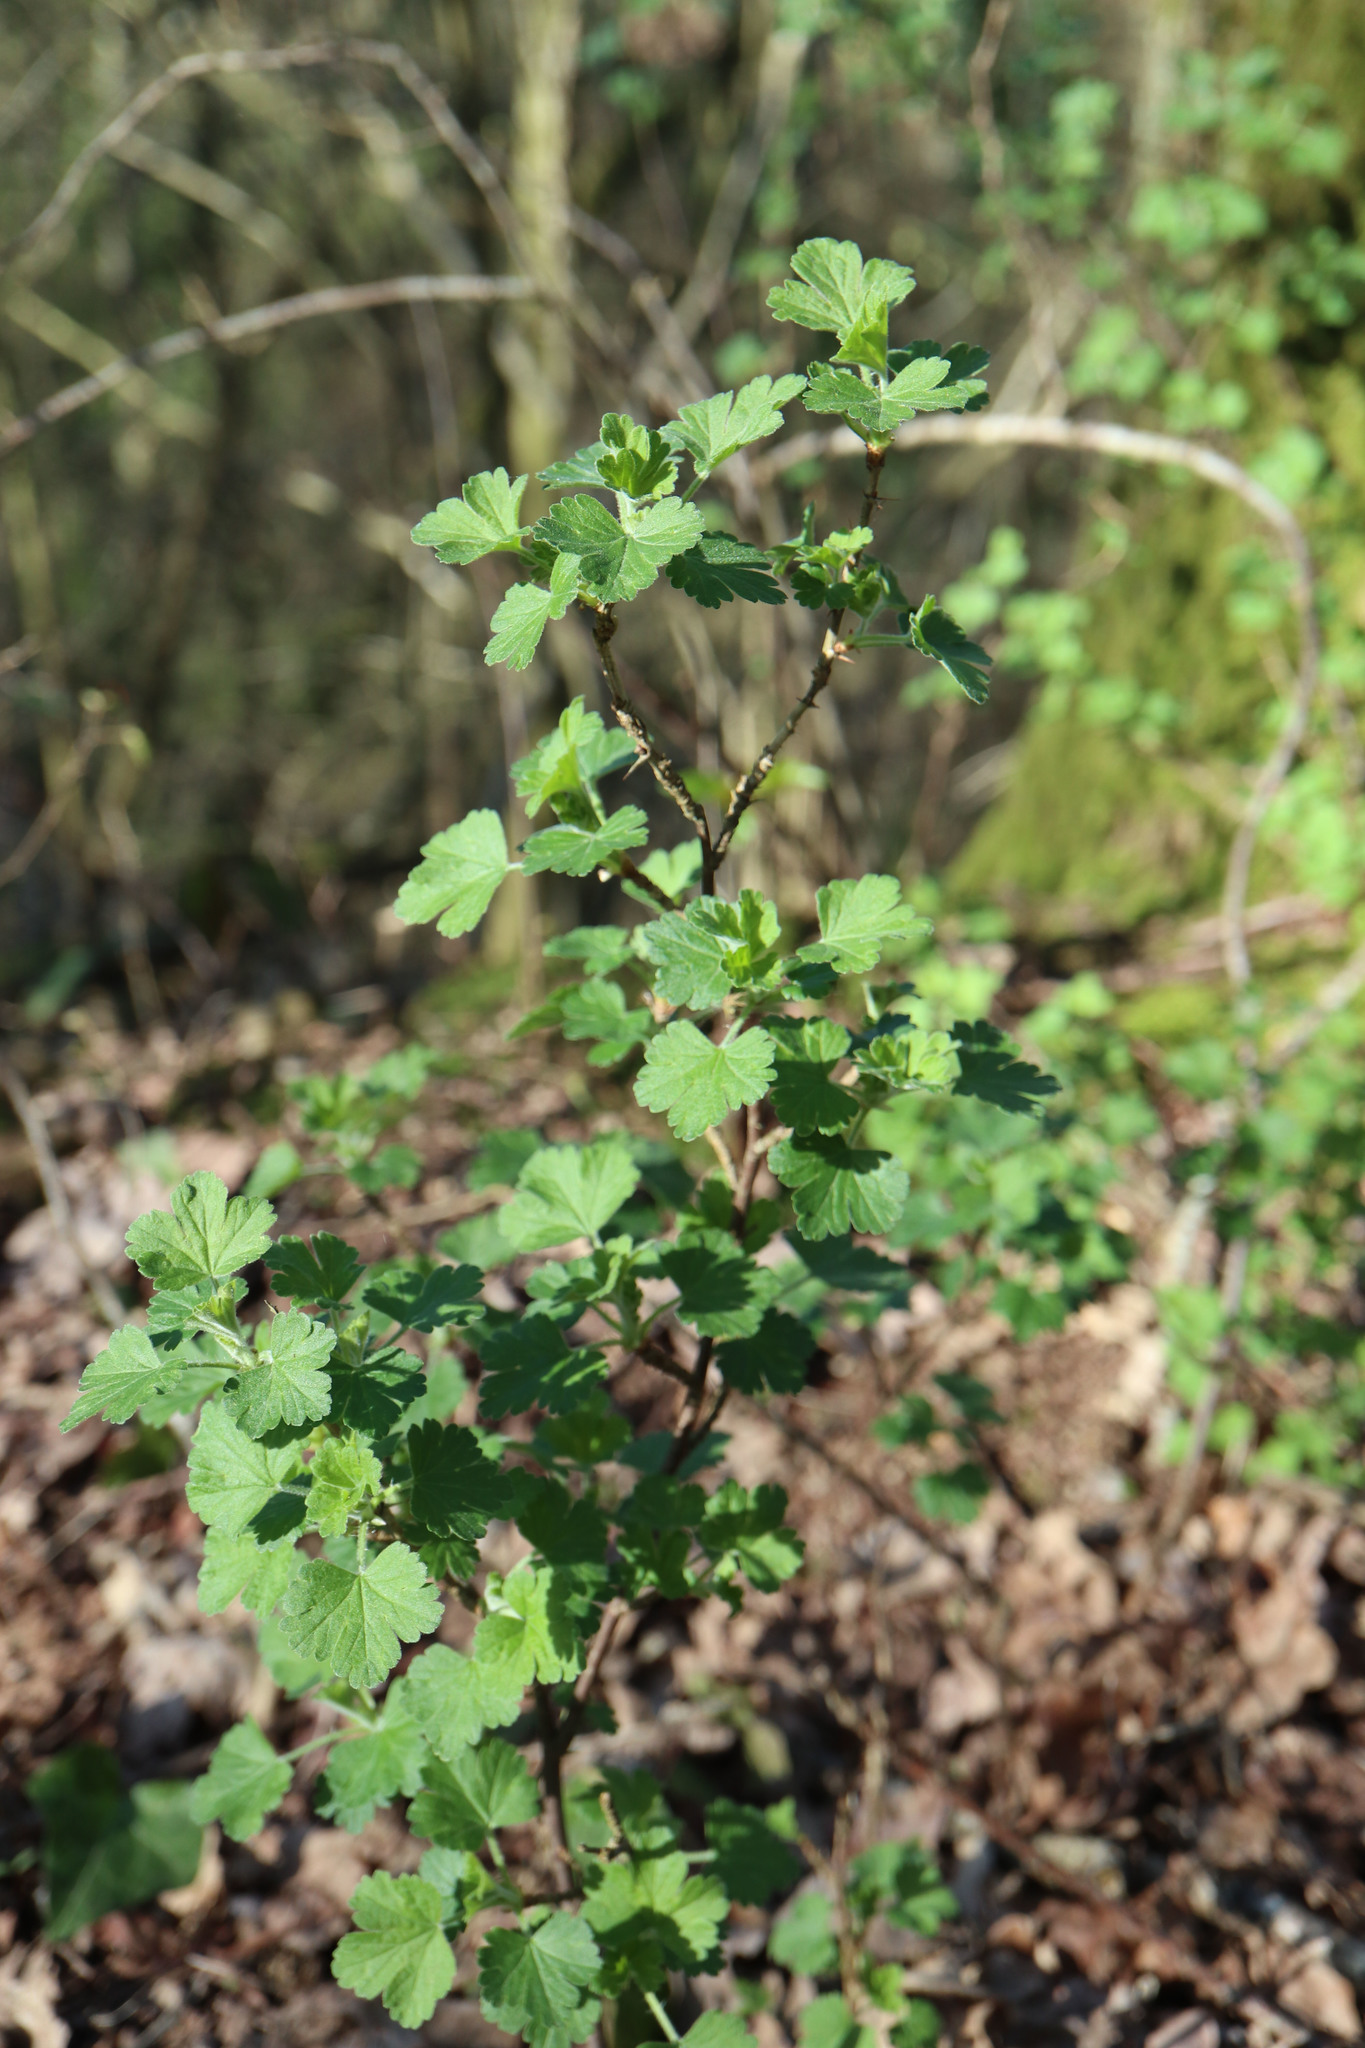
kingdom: Plantae
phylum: Tracheophyta
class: Magnoliopsida
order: Saxifragales
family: Grossulariaceae
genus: Ribes
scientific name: Ribes uva-crispa
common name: Gooseberry
